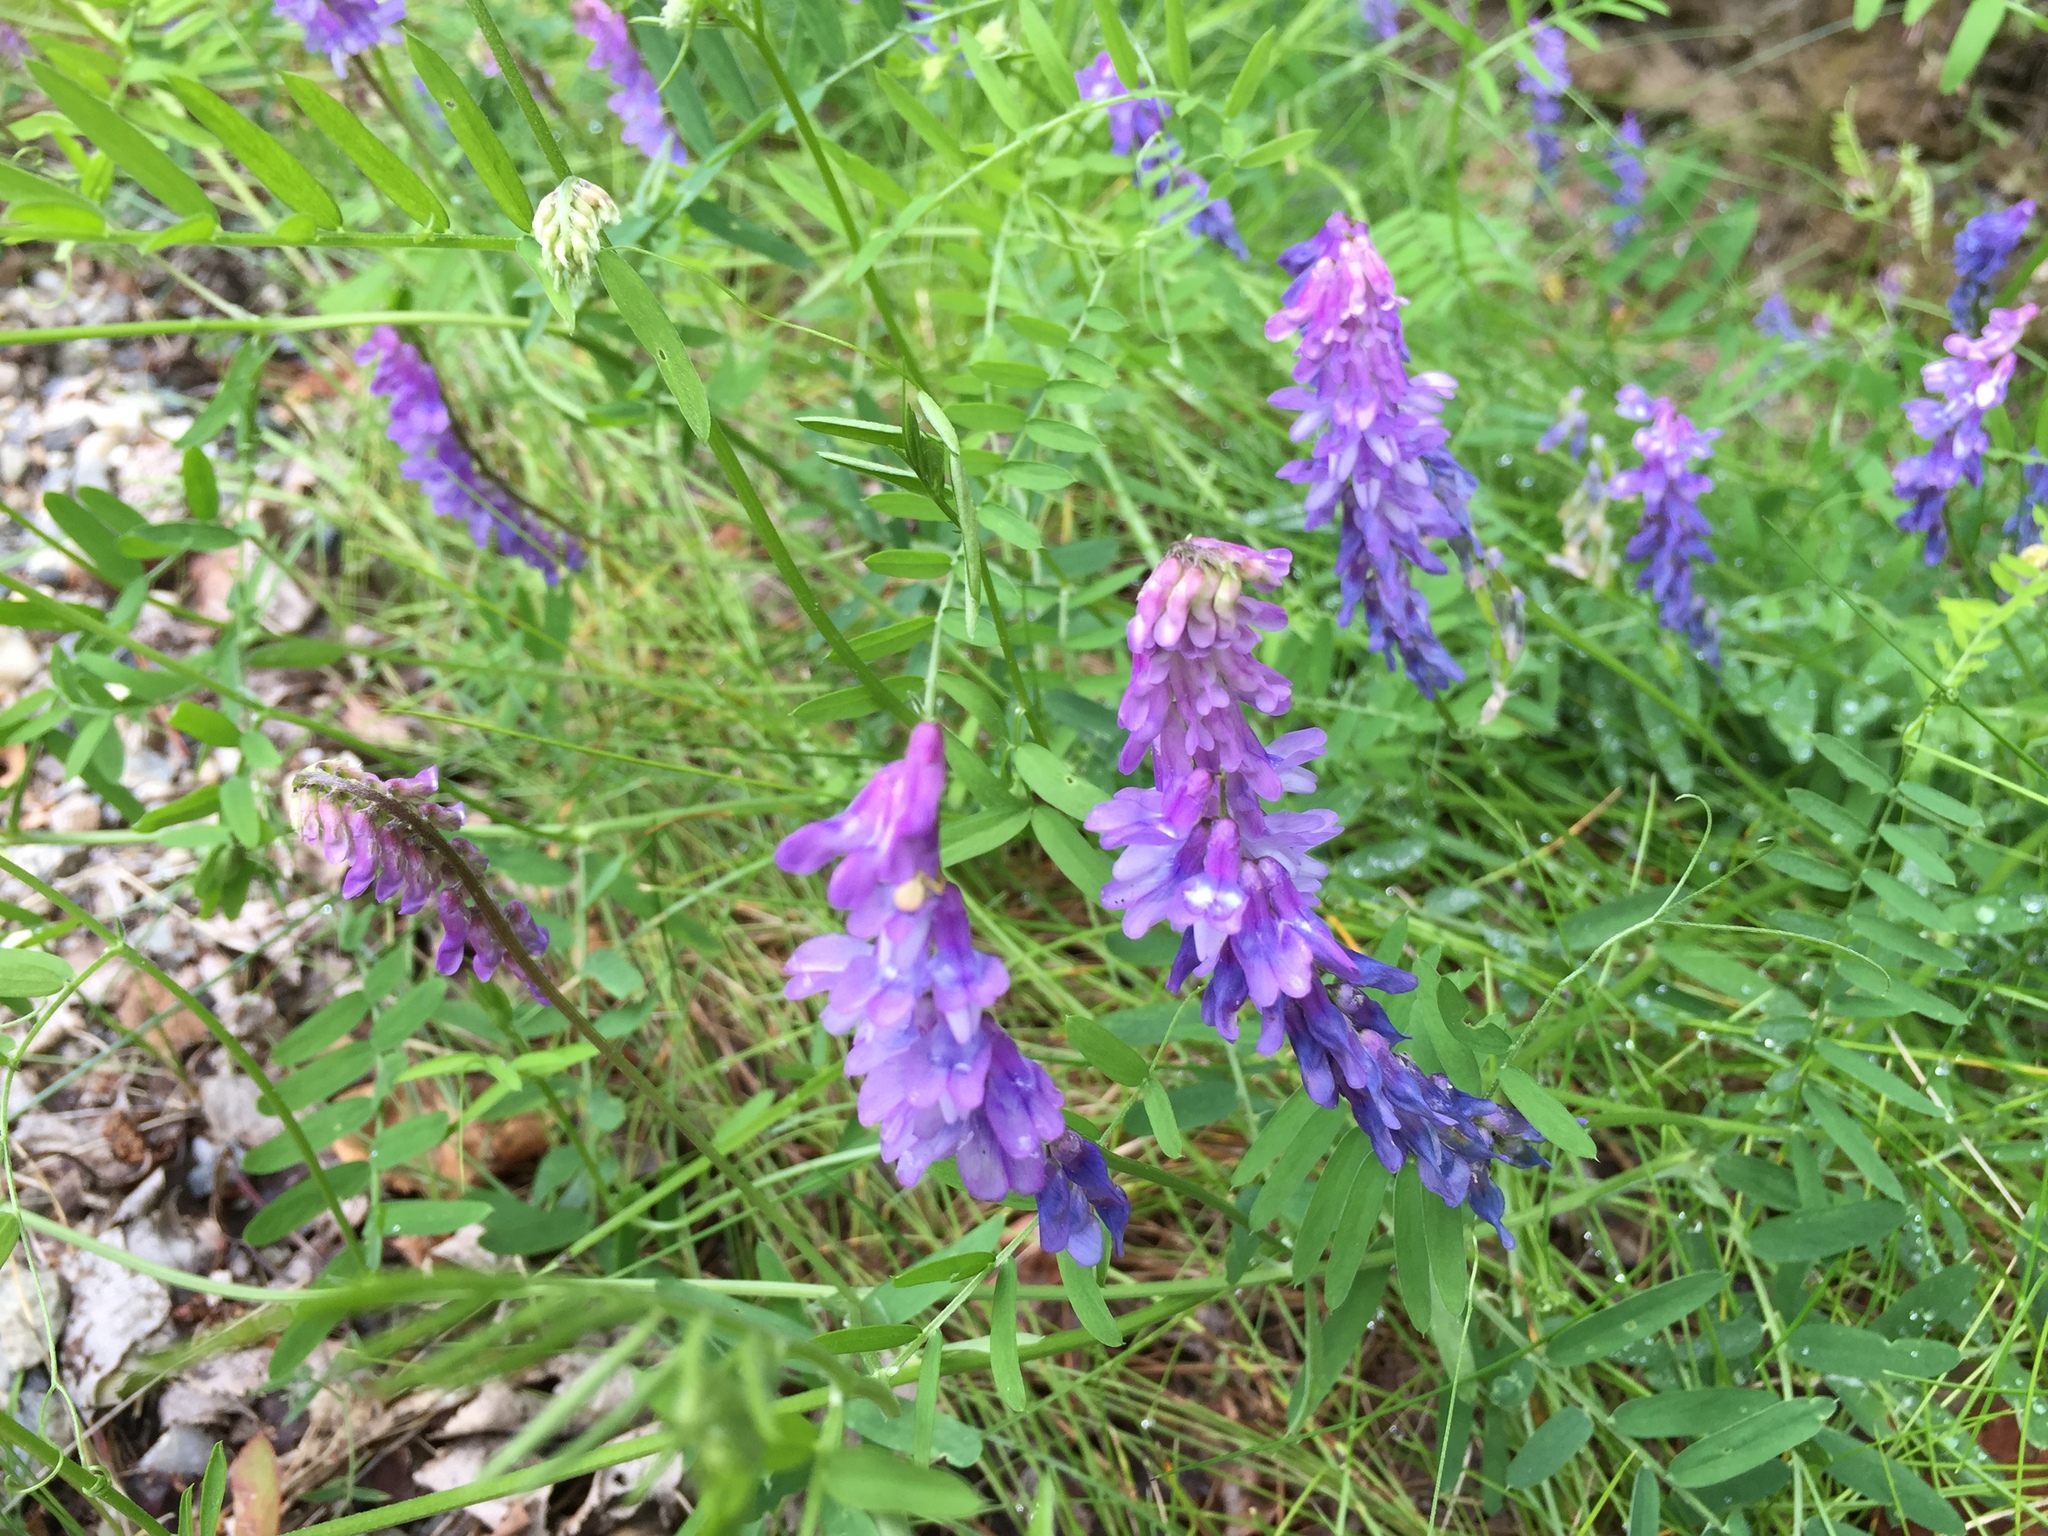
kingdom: Plantae
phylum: Tracheophyta
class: Magnoliopsida
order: Fabales
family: Fabaceae
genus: Vicia
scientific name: Vicia cracca
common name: Bird vetch
